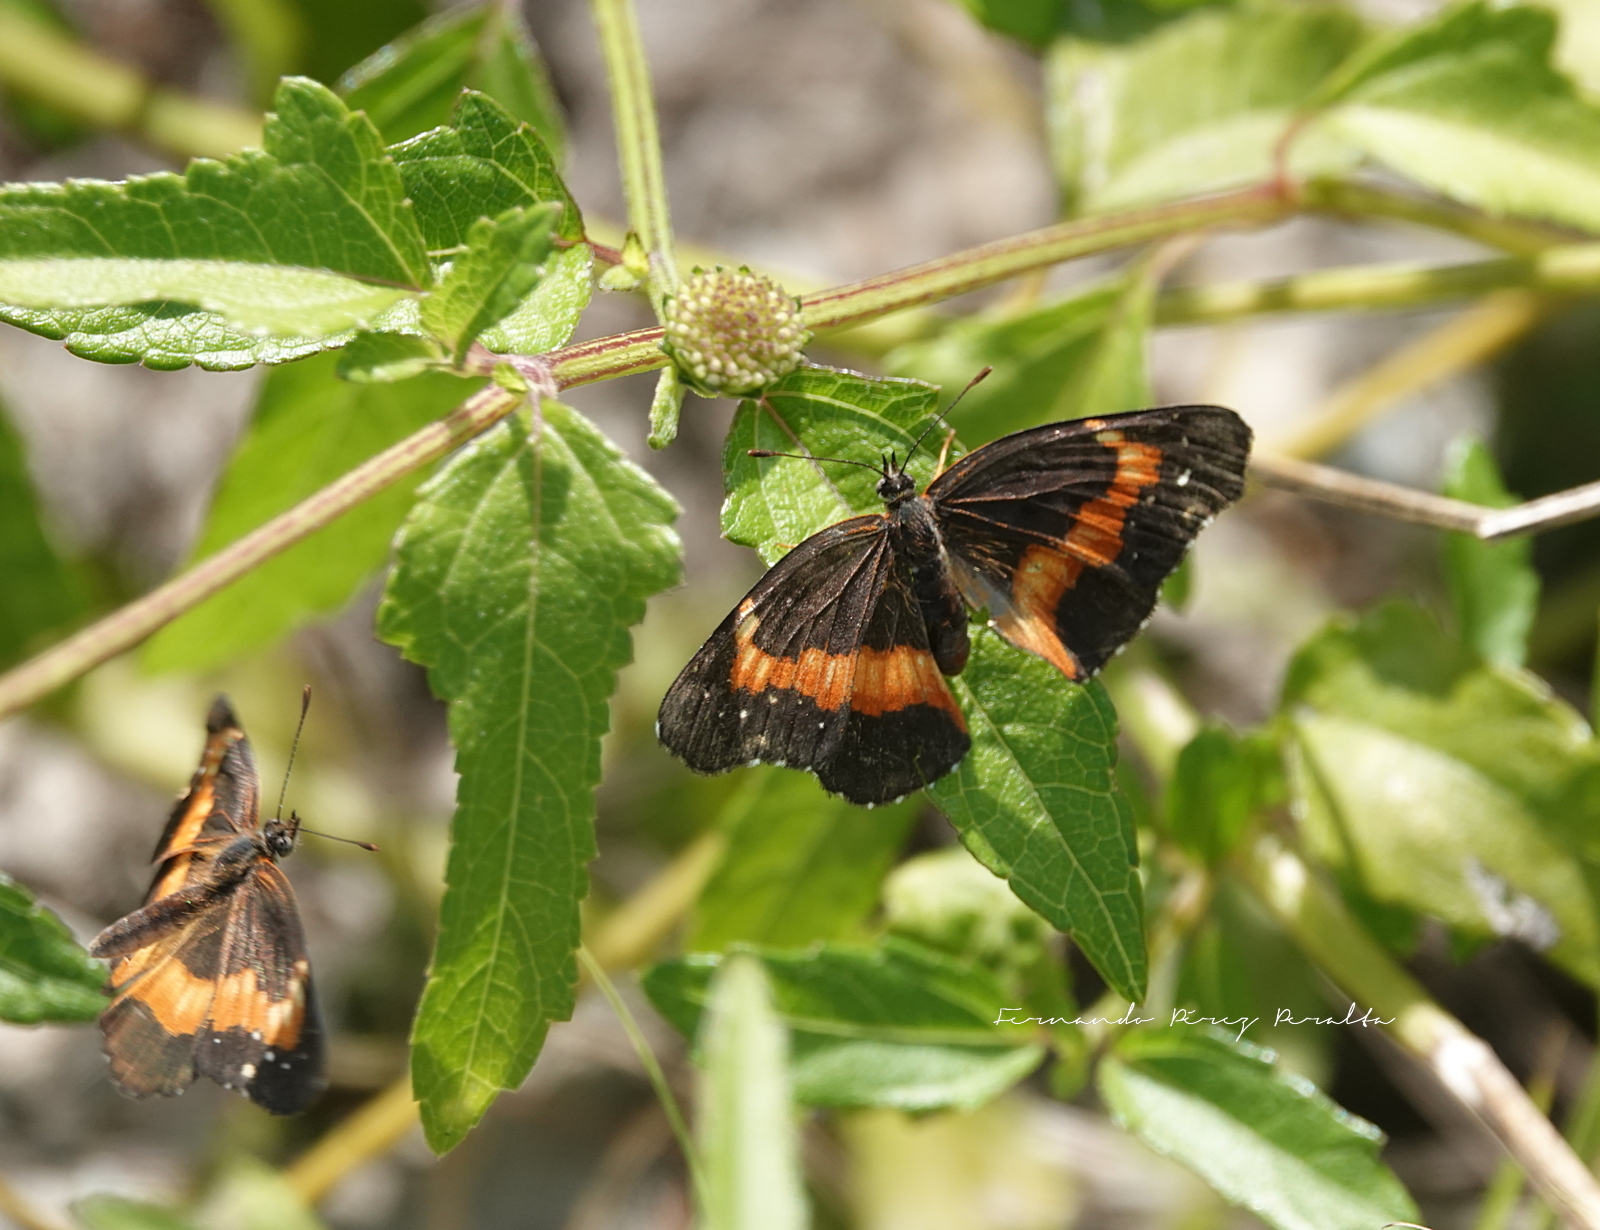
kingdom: Animalia
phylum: Arthropoda
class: Insecta
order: Lepidoptera
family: Nymphalidae
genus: Chlosyne
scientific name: Chlosyne lacinia
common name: Bordered patch
